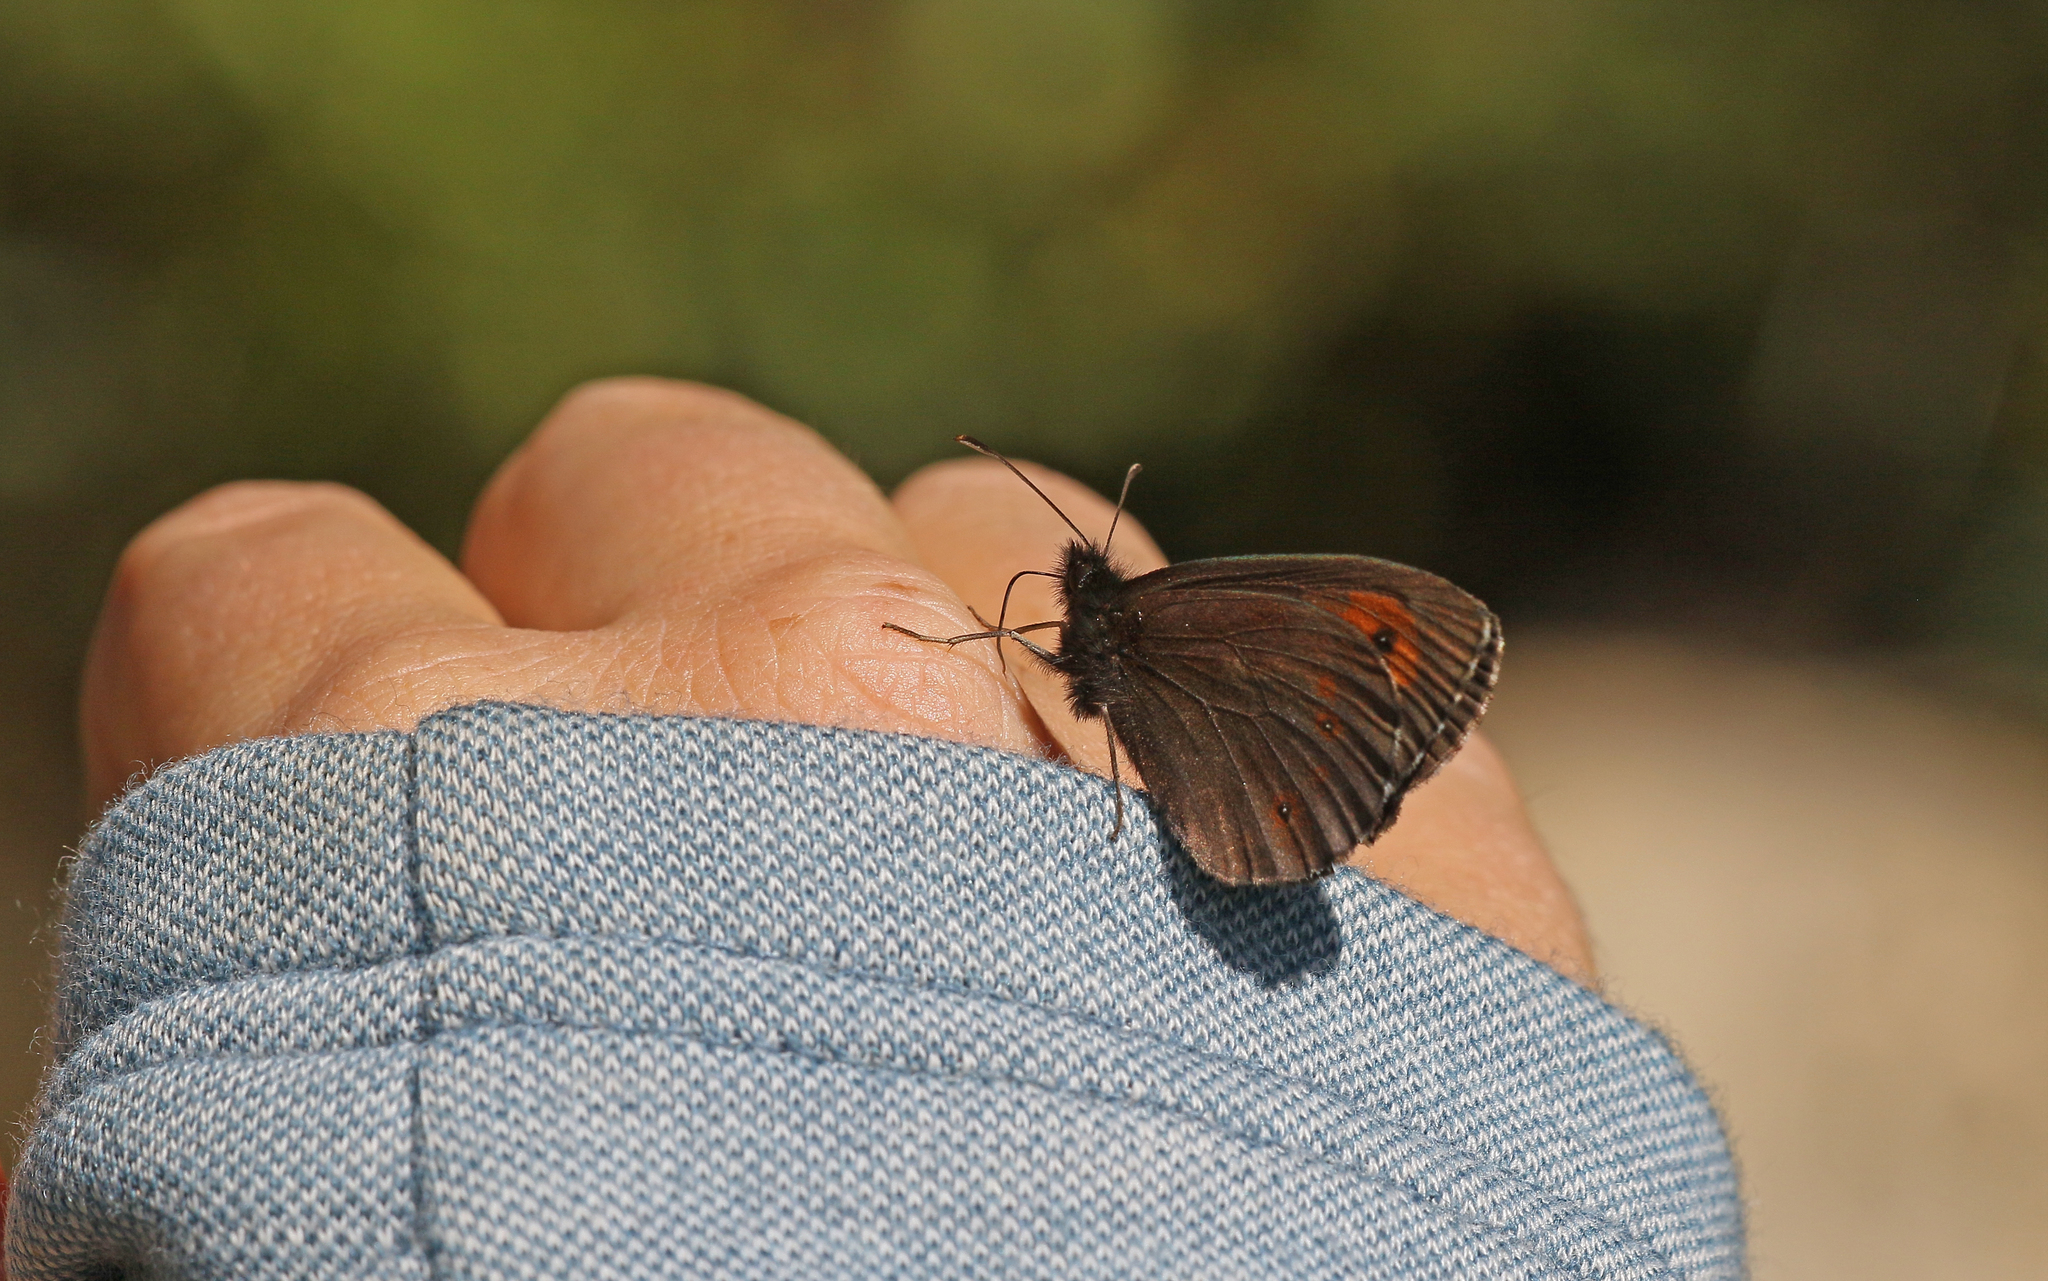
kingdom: Animalia
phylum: Arthropoda
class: Insecta
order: Lepidoptera
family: Nymphalidae
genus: Erebia
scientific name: Erebia euryale
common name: Large ringlet
